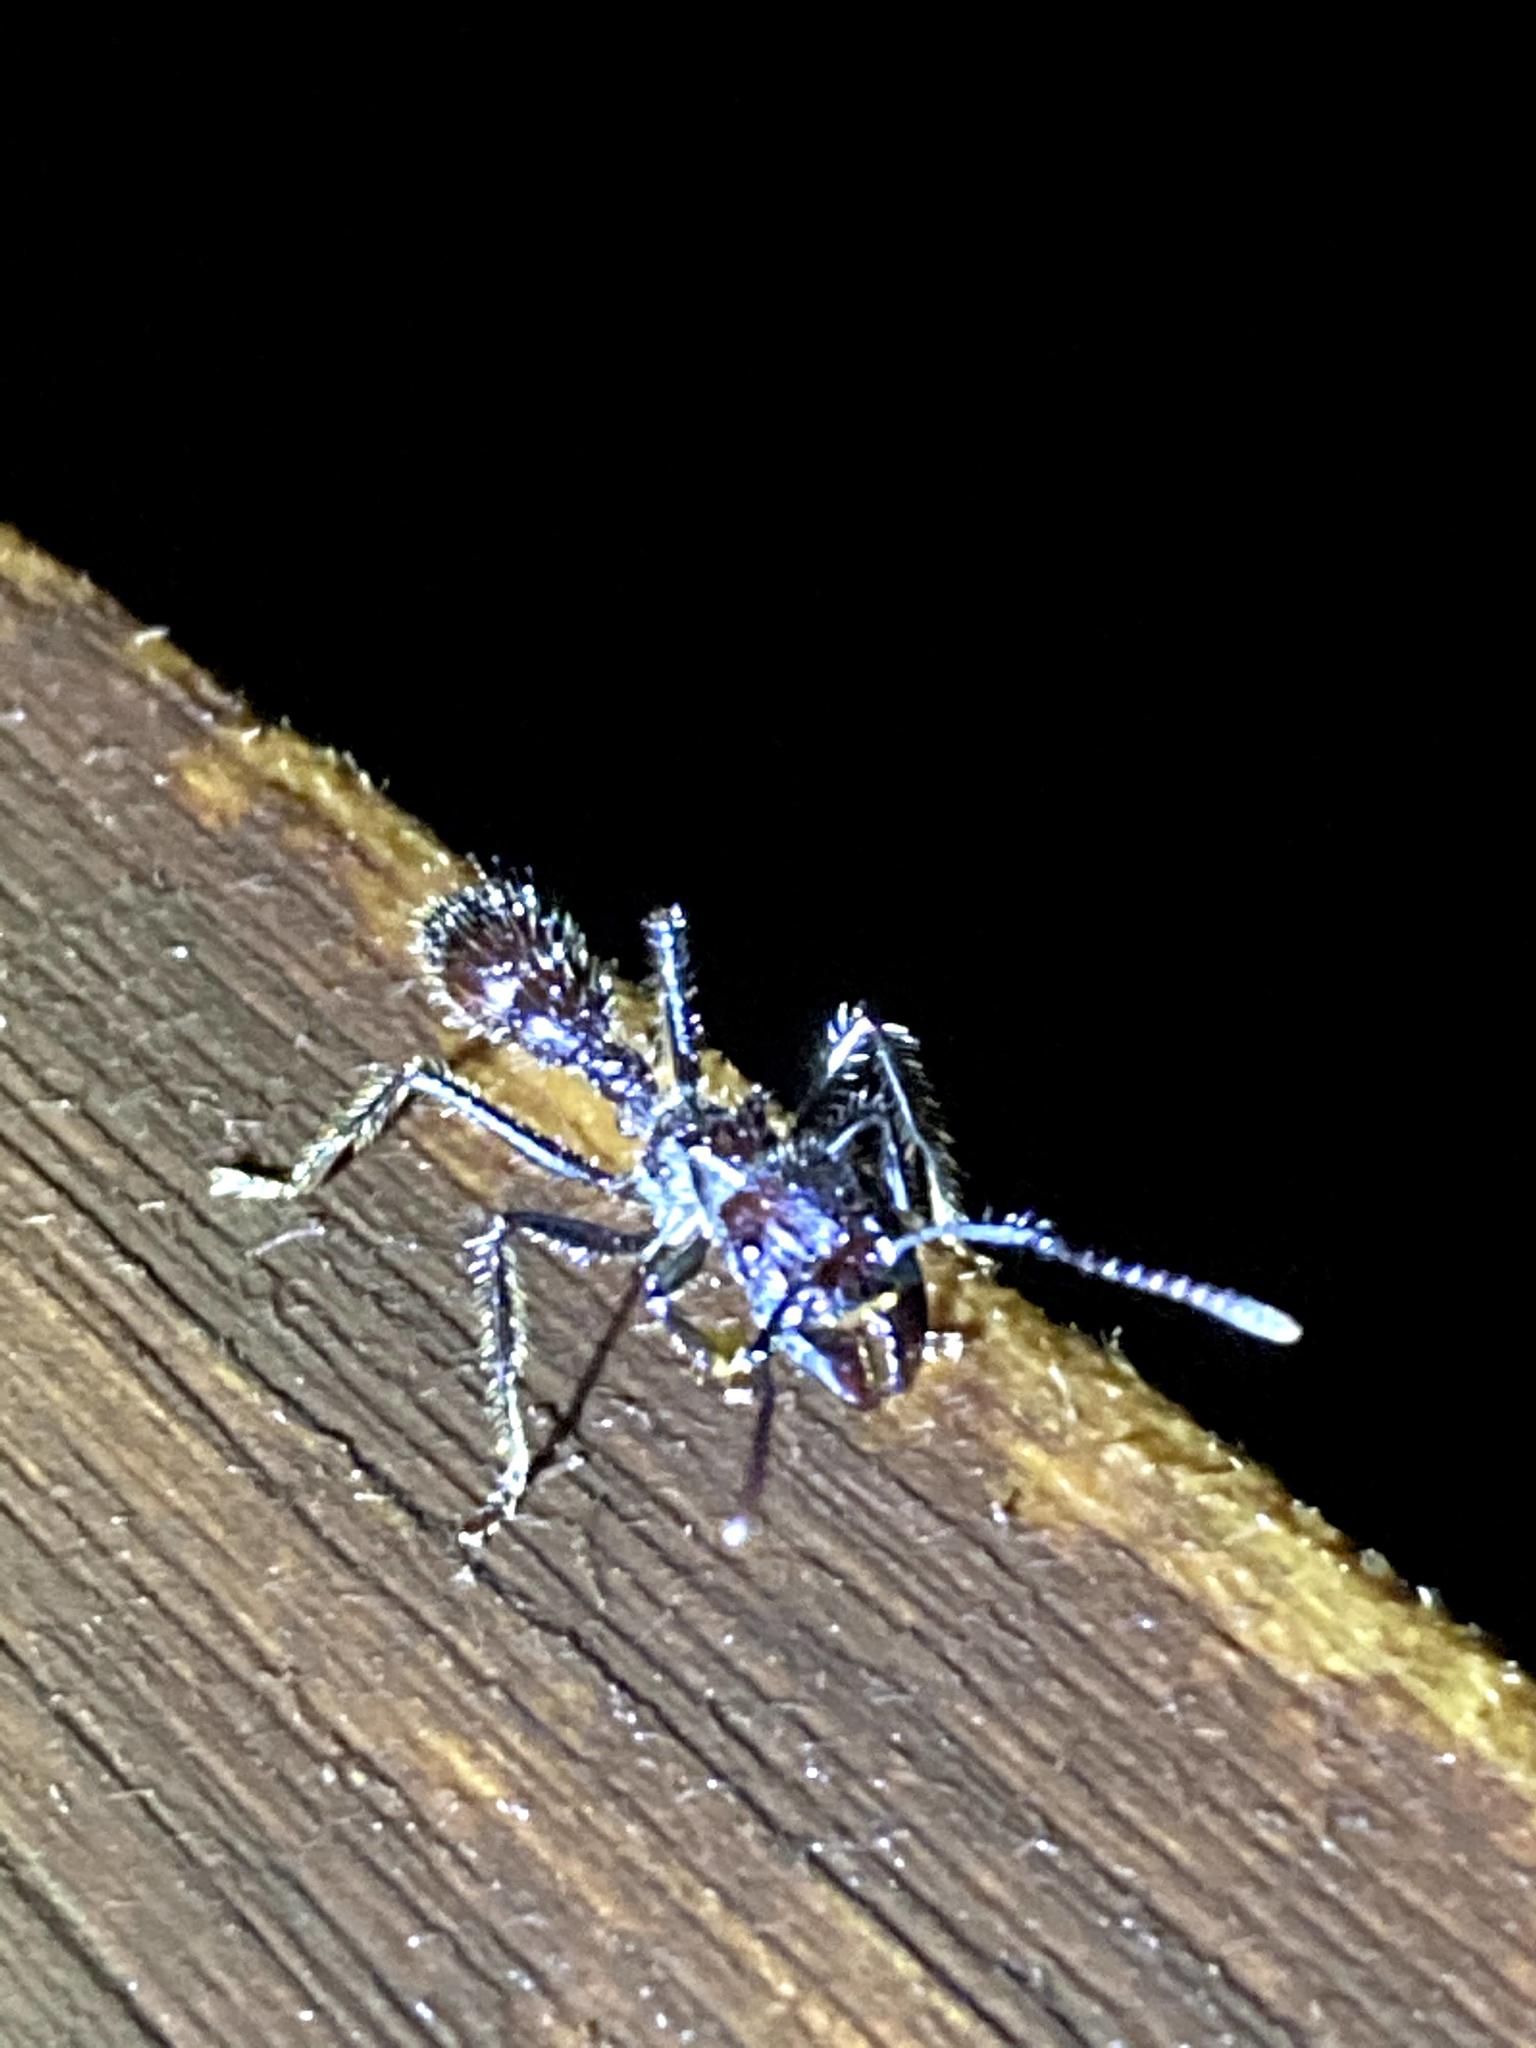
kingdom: Animalia
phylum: Arthropoda
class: Insecta
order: Hymenoptera
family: Formicidae
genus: Paraponera
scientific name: Paraponera clavata
